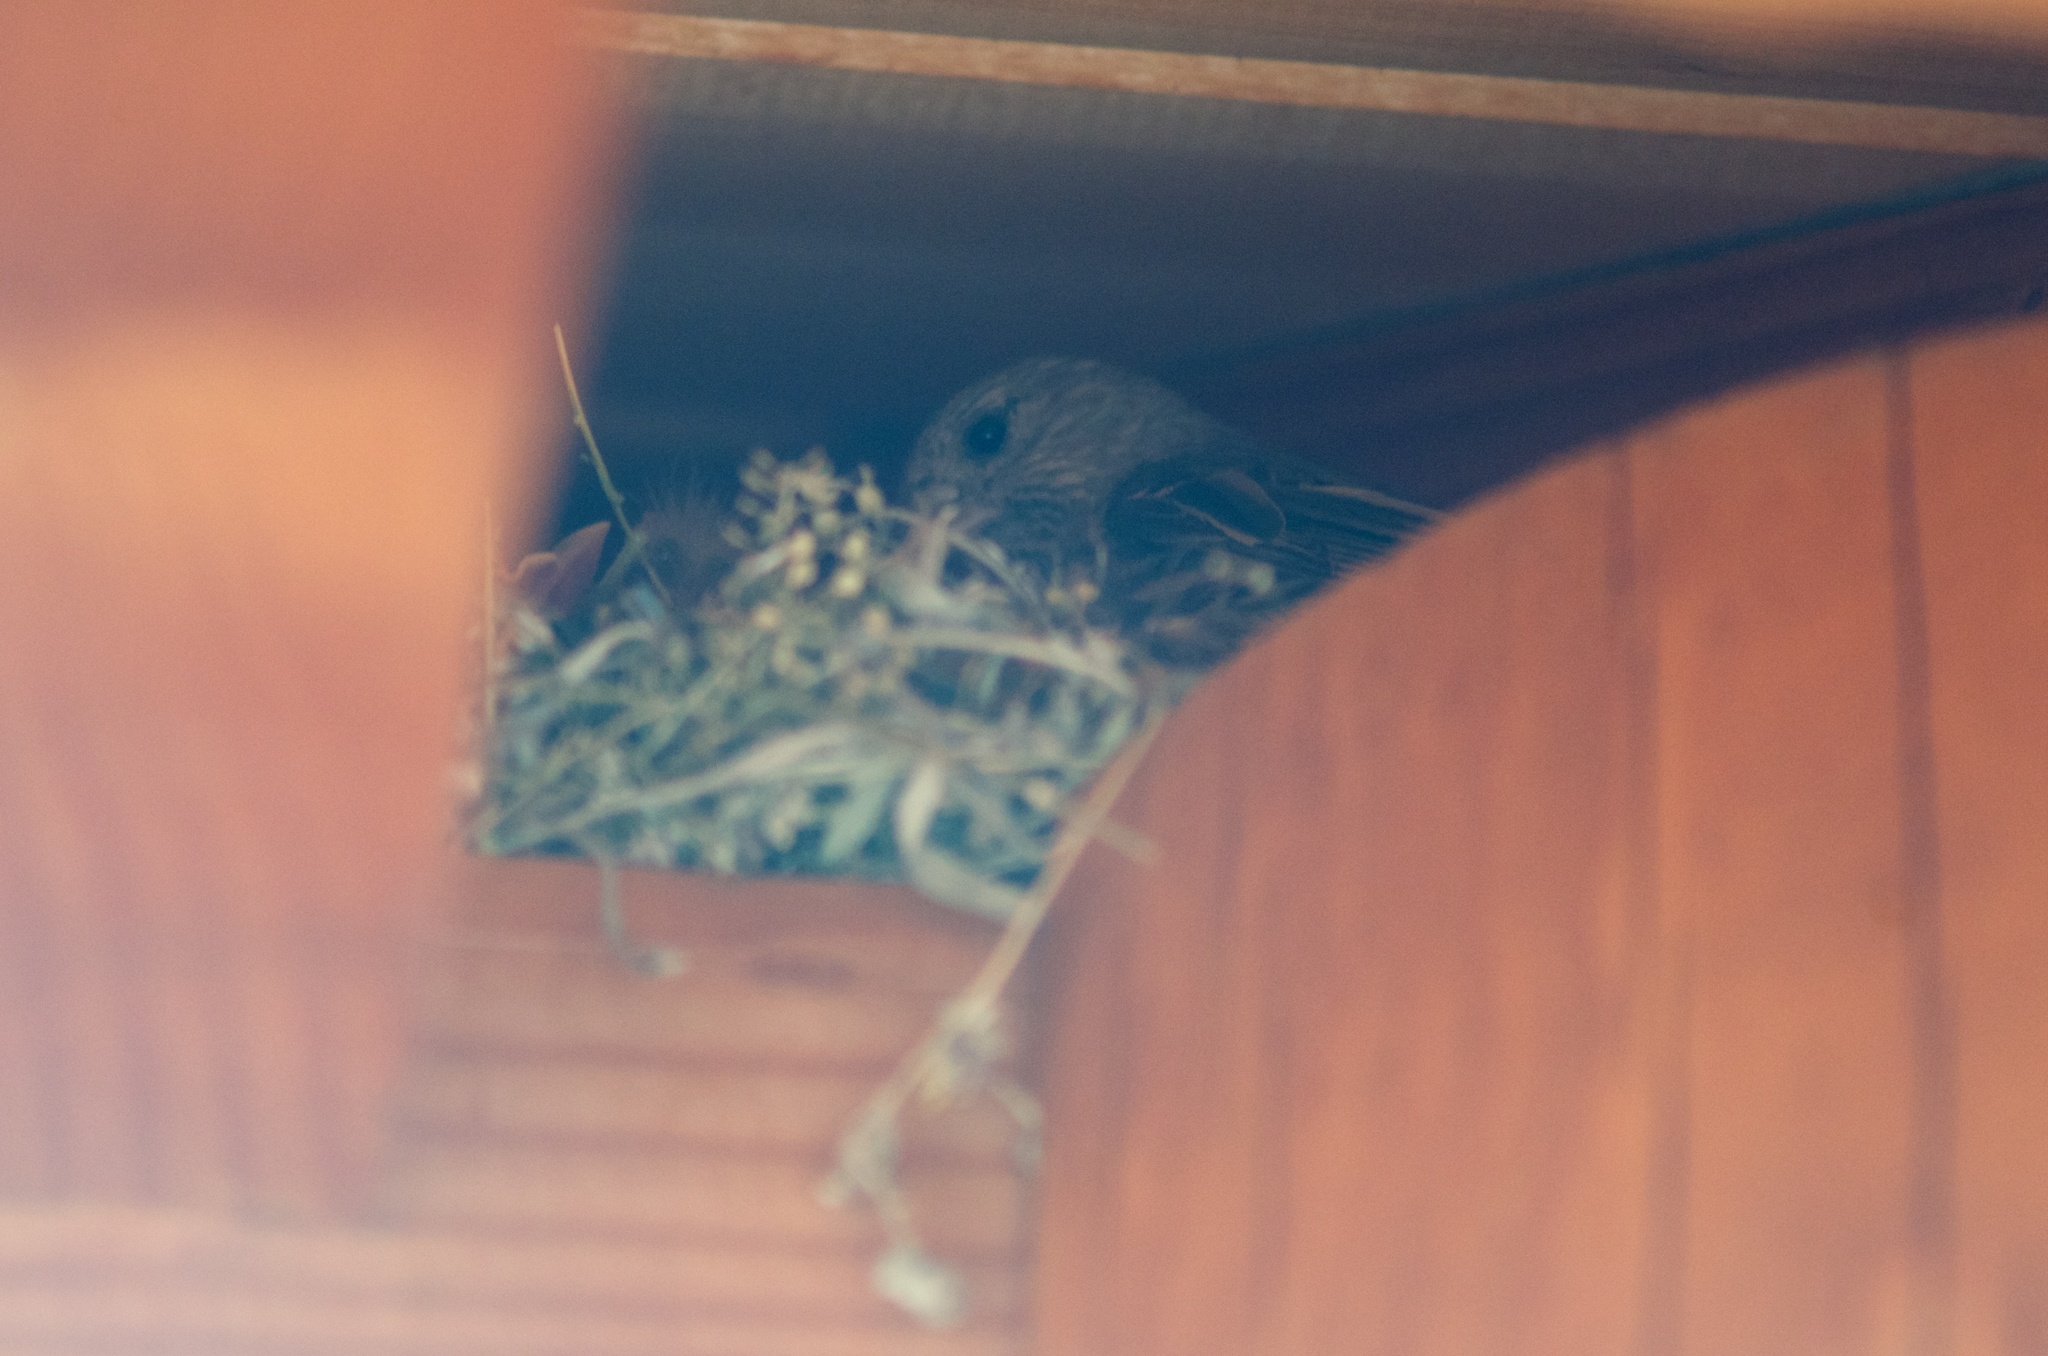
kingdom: Animalia
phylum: Chordata
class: Aves
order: Passeriformes
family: Fringillidae
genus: Haemorhous
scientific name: Haemorhous mexicanus
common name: House finch
